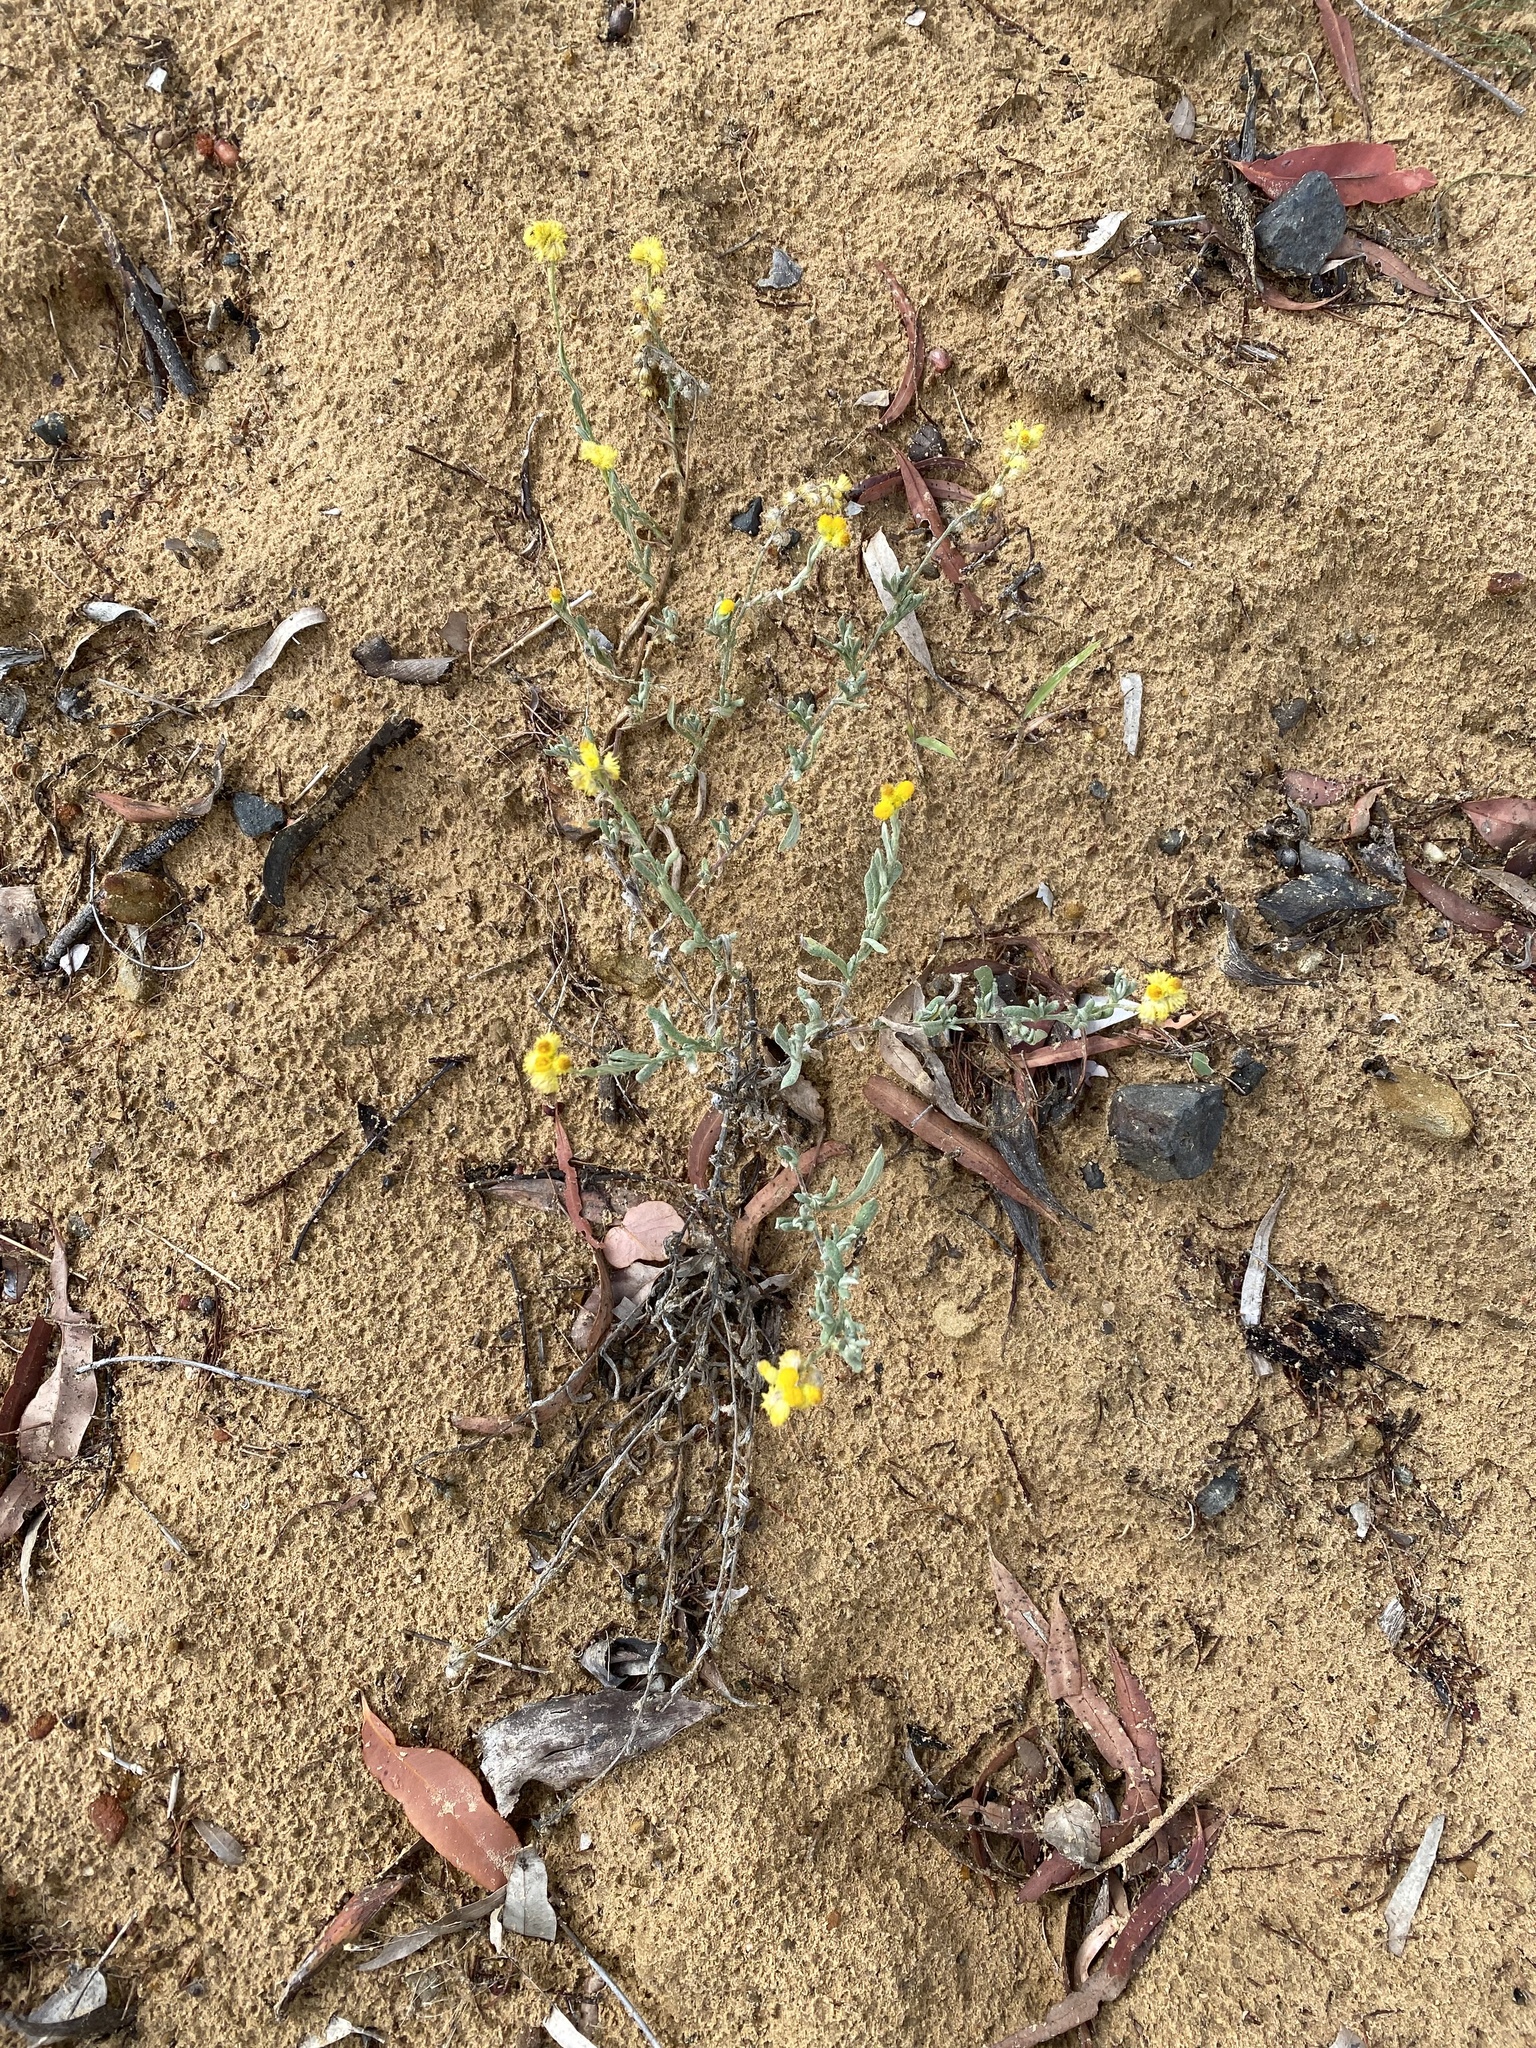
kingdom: Plantae
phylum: Tracheophyta
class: Magnoliopsida
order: Asterales
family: Asteraceae
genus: Chrysocephalum
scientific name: Chrysocephalum apiculatum
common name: Common everlasting
